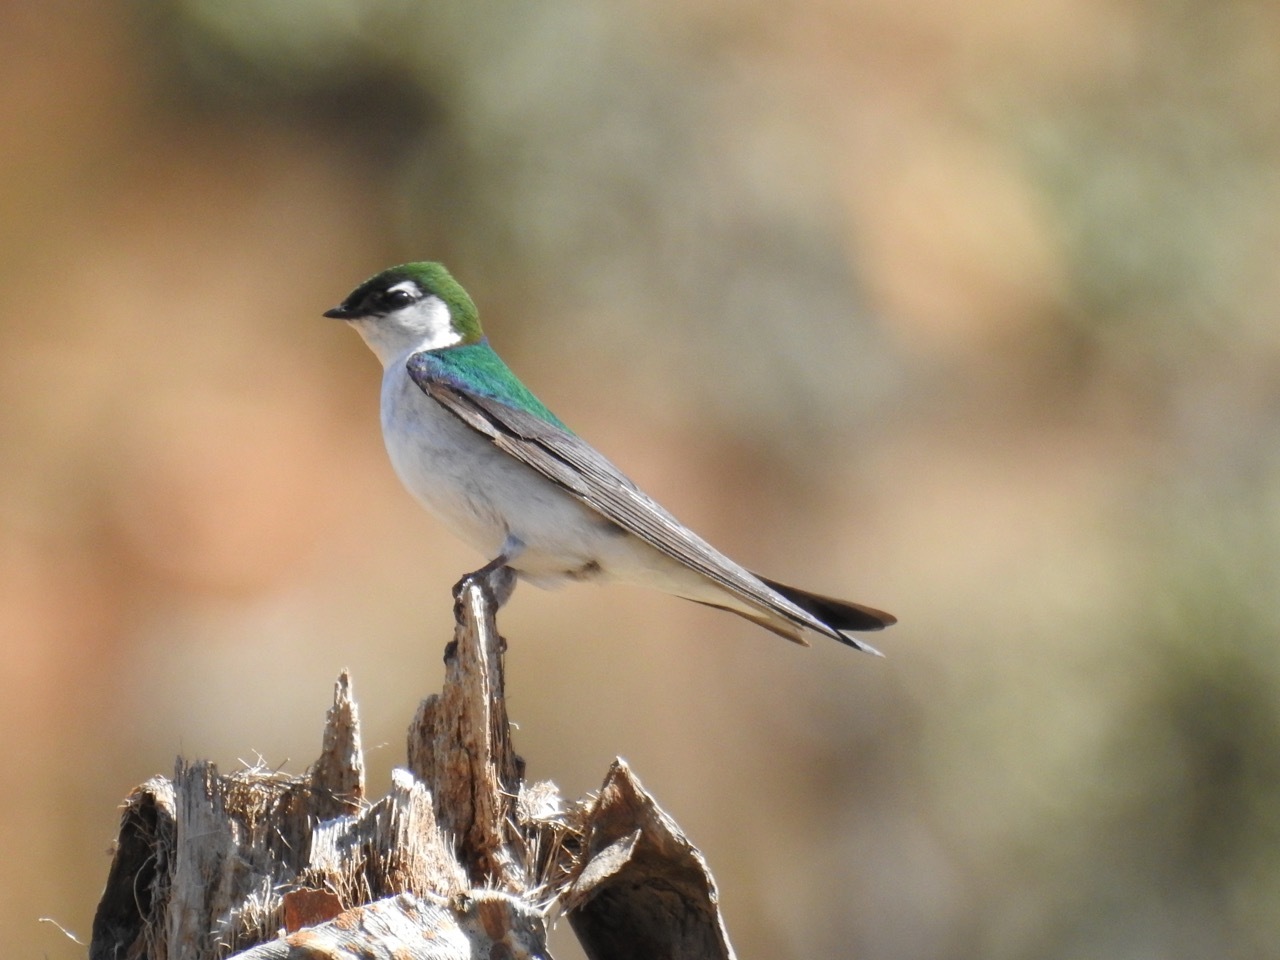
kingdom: Animalia
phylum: Chordata
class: Aves
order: Passeriformes
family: Hirundinidae
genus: Tachycineta
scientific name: Tachycineta thalassina
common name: Violet-green swallow
